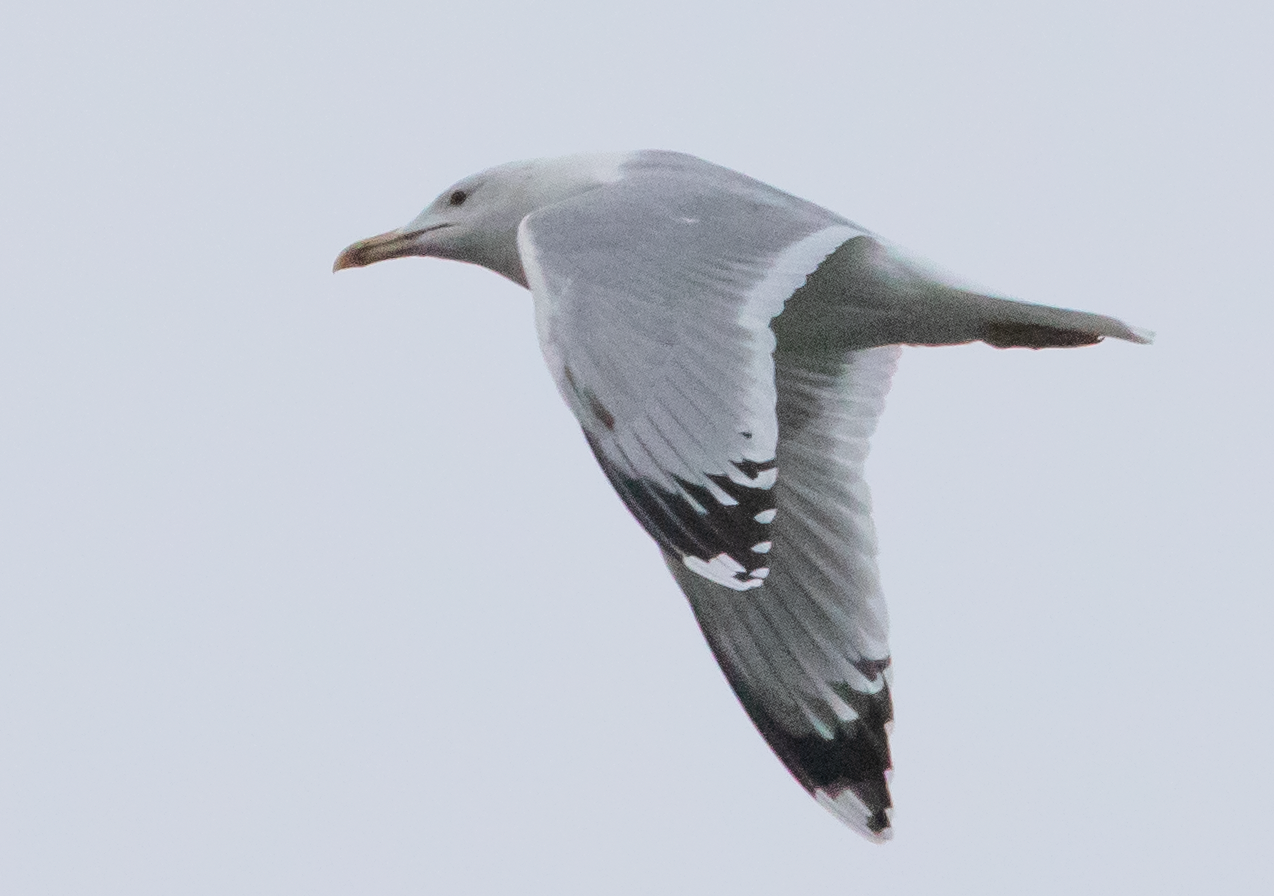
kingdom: Animalia
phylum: Chordata
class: Aves
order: Charadriiformes
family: Laridae
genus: Larus
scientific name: Larus cachinnans
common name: Caspian gull
